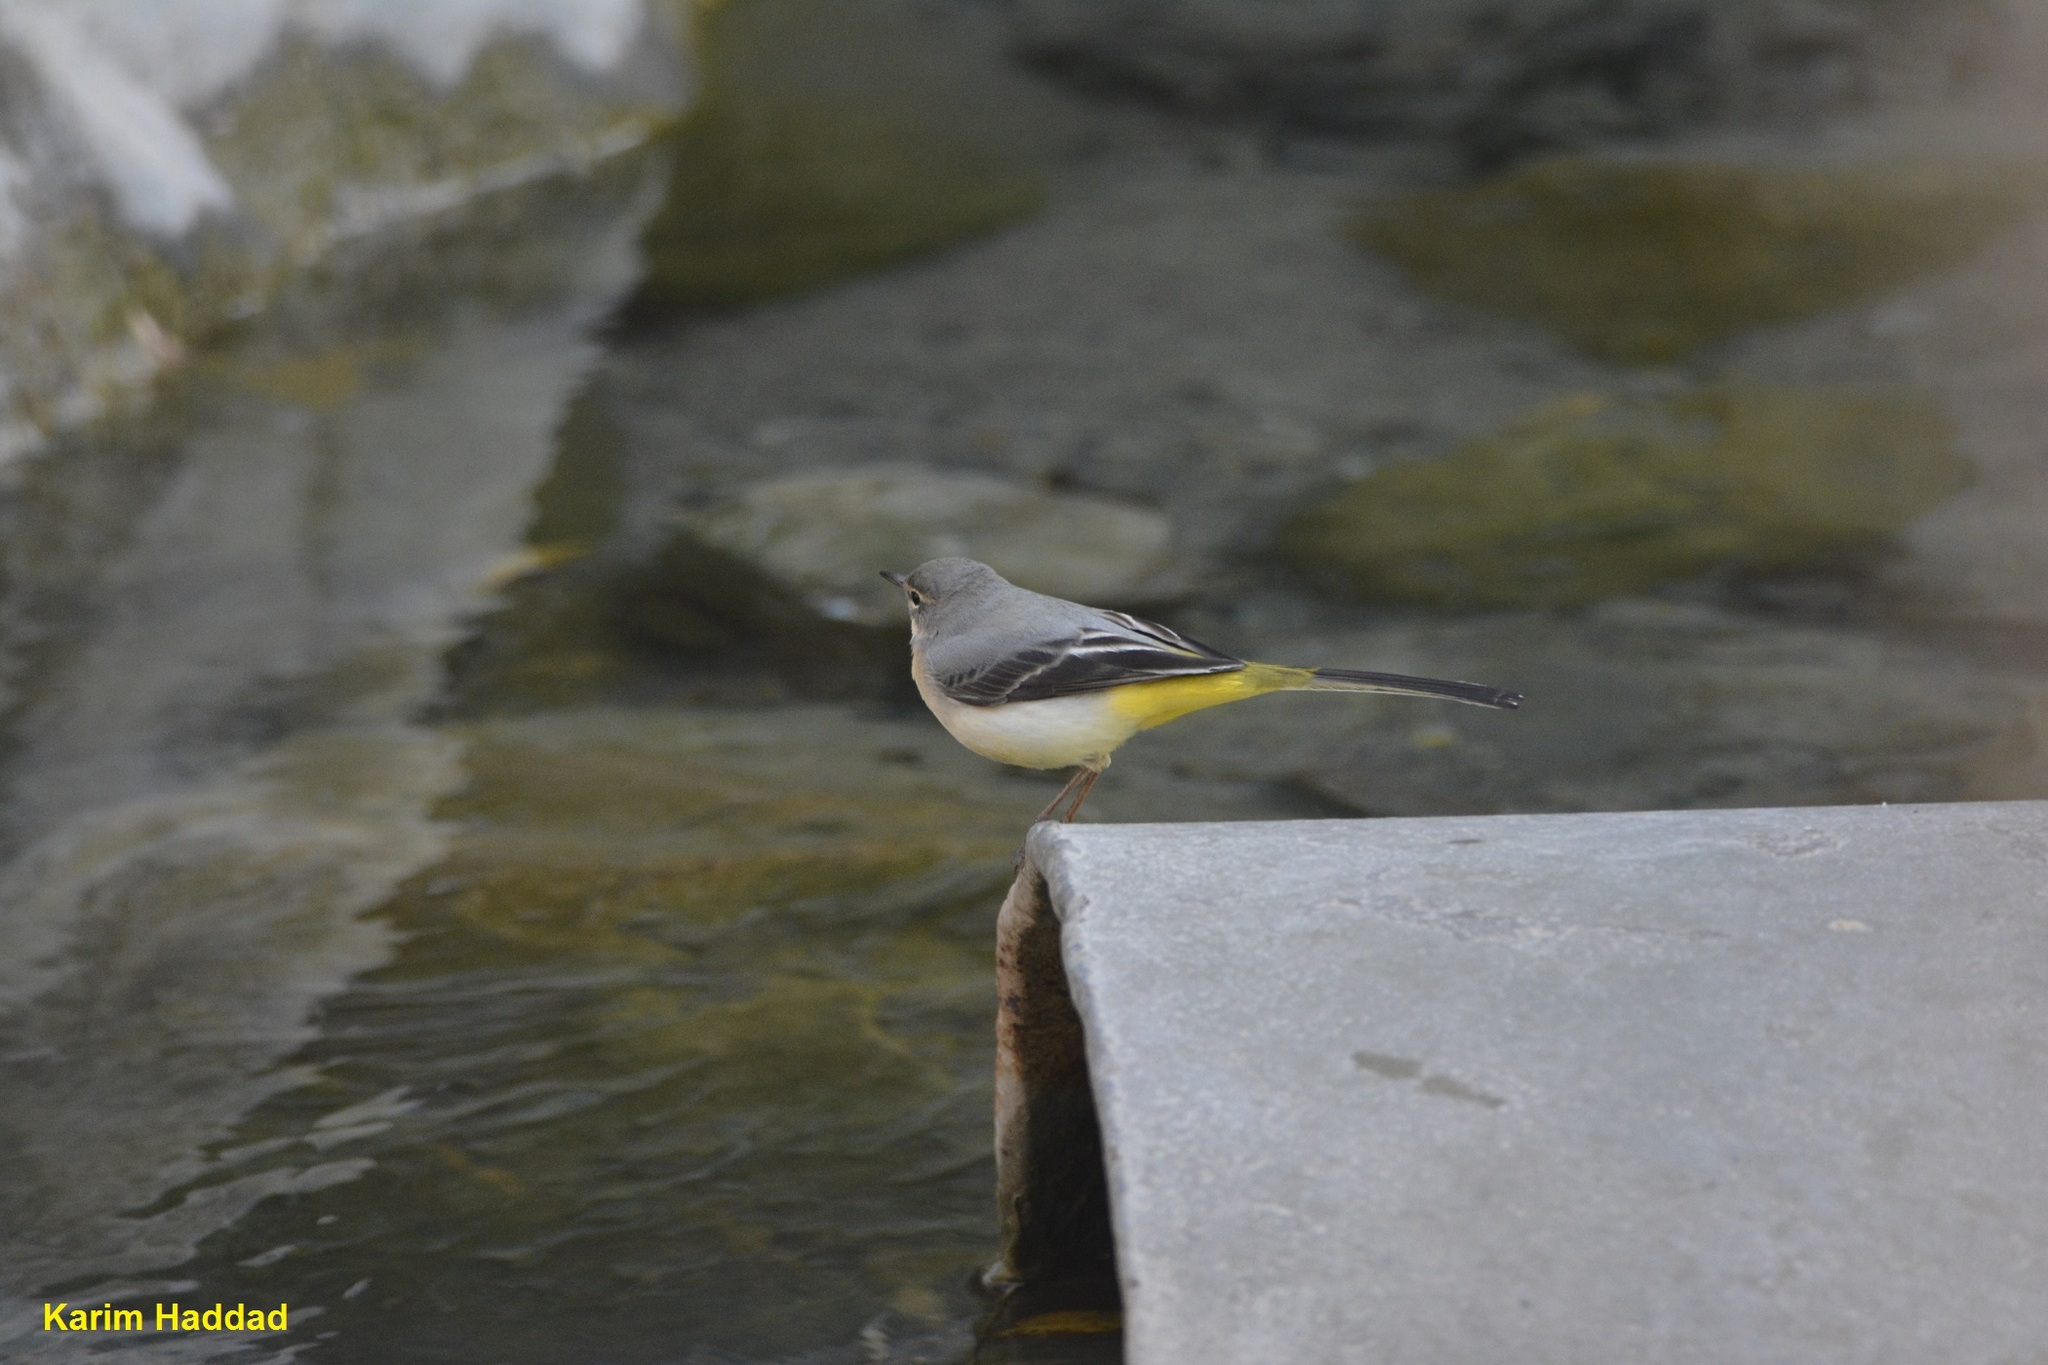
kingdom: Animalia
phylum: Chordata
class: Aves
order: Passeriformes
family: Motacillidae
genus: Motacilla
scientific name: Motacilla cinerea
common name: Grey wagtail
